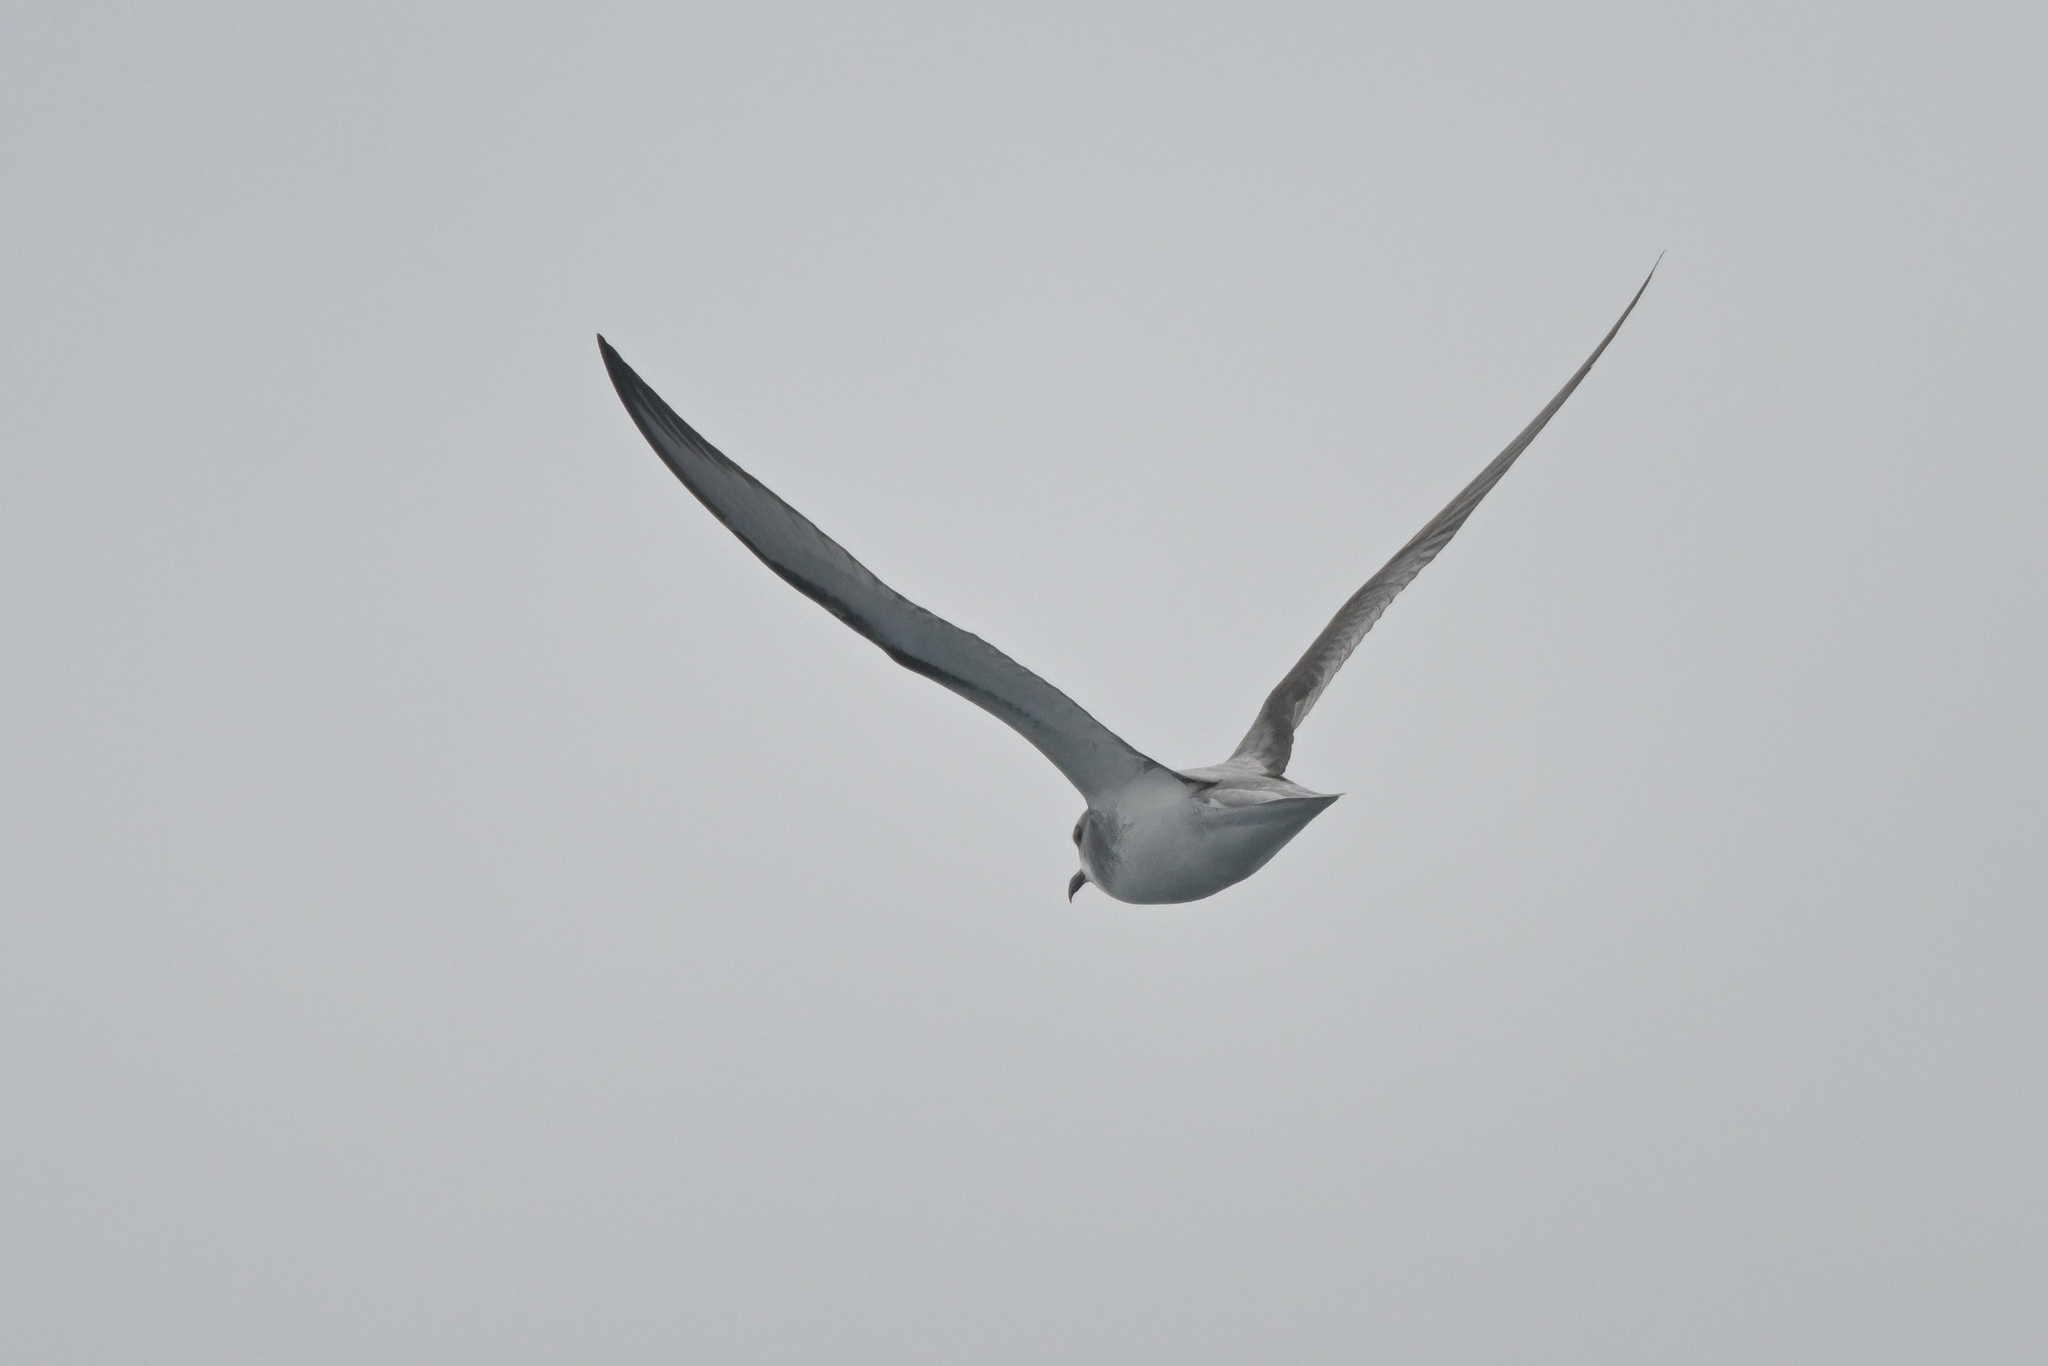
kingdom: Animalia
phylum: Chordata
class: Aves
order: Procellariiformes
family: Procellariidae
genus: Pterodroma
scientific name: Pterodroma cookii
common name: Cook's petrel
